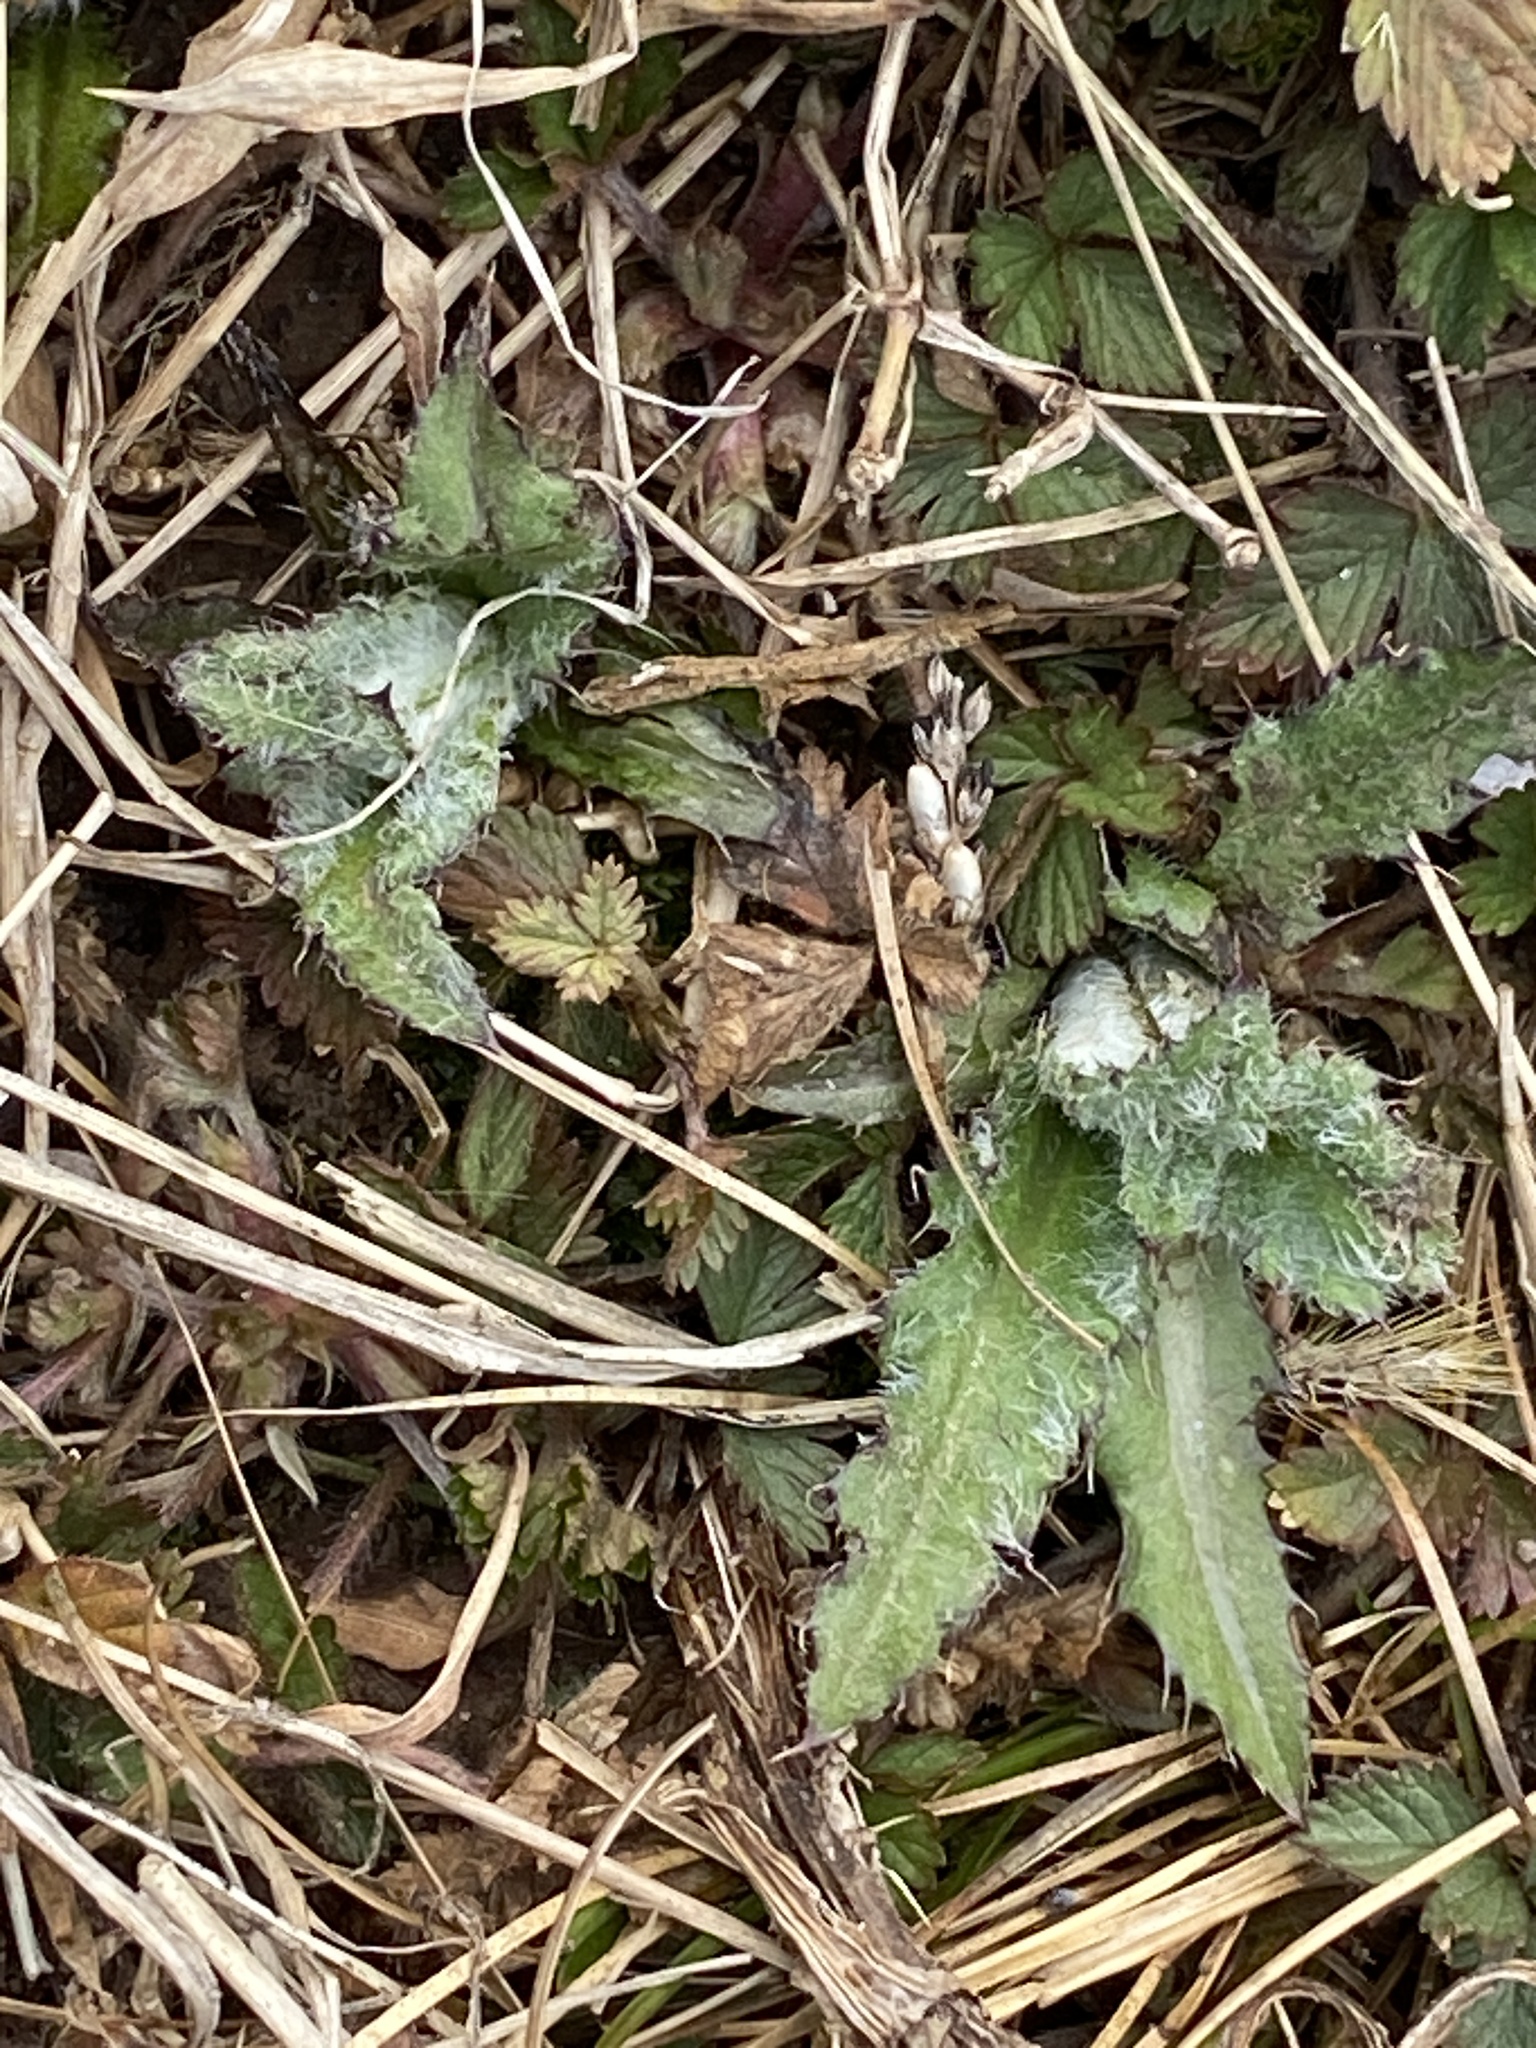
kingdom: Plantae
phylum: Tracheophyta
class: Magnoliopsida
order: Asterales
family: Asteraceae
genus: Cirsium
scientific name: Cirsium arvense
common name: Creeping thistle
